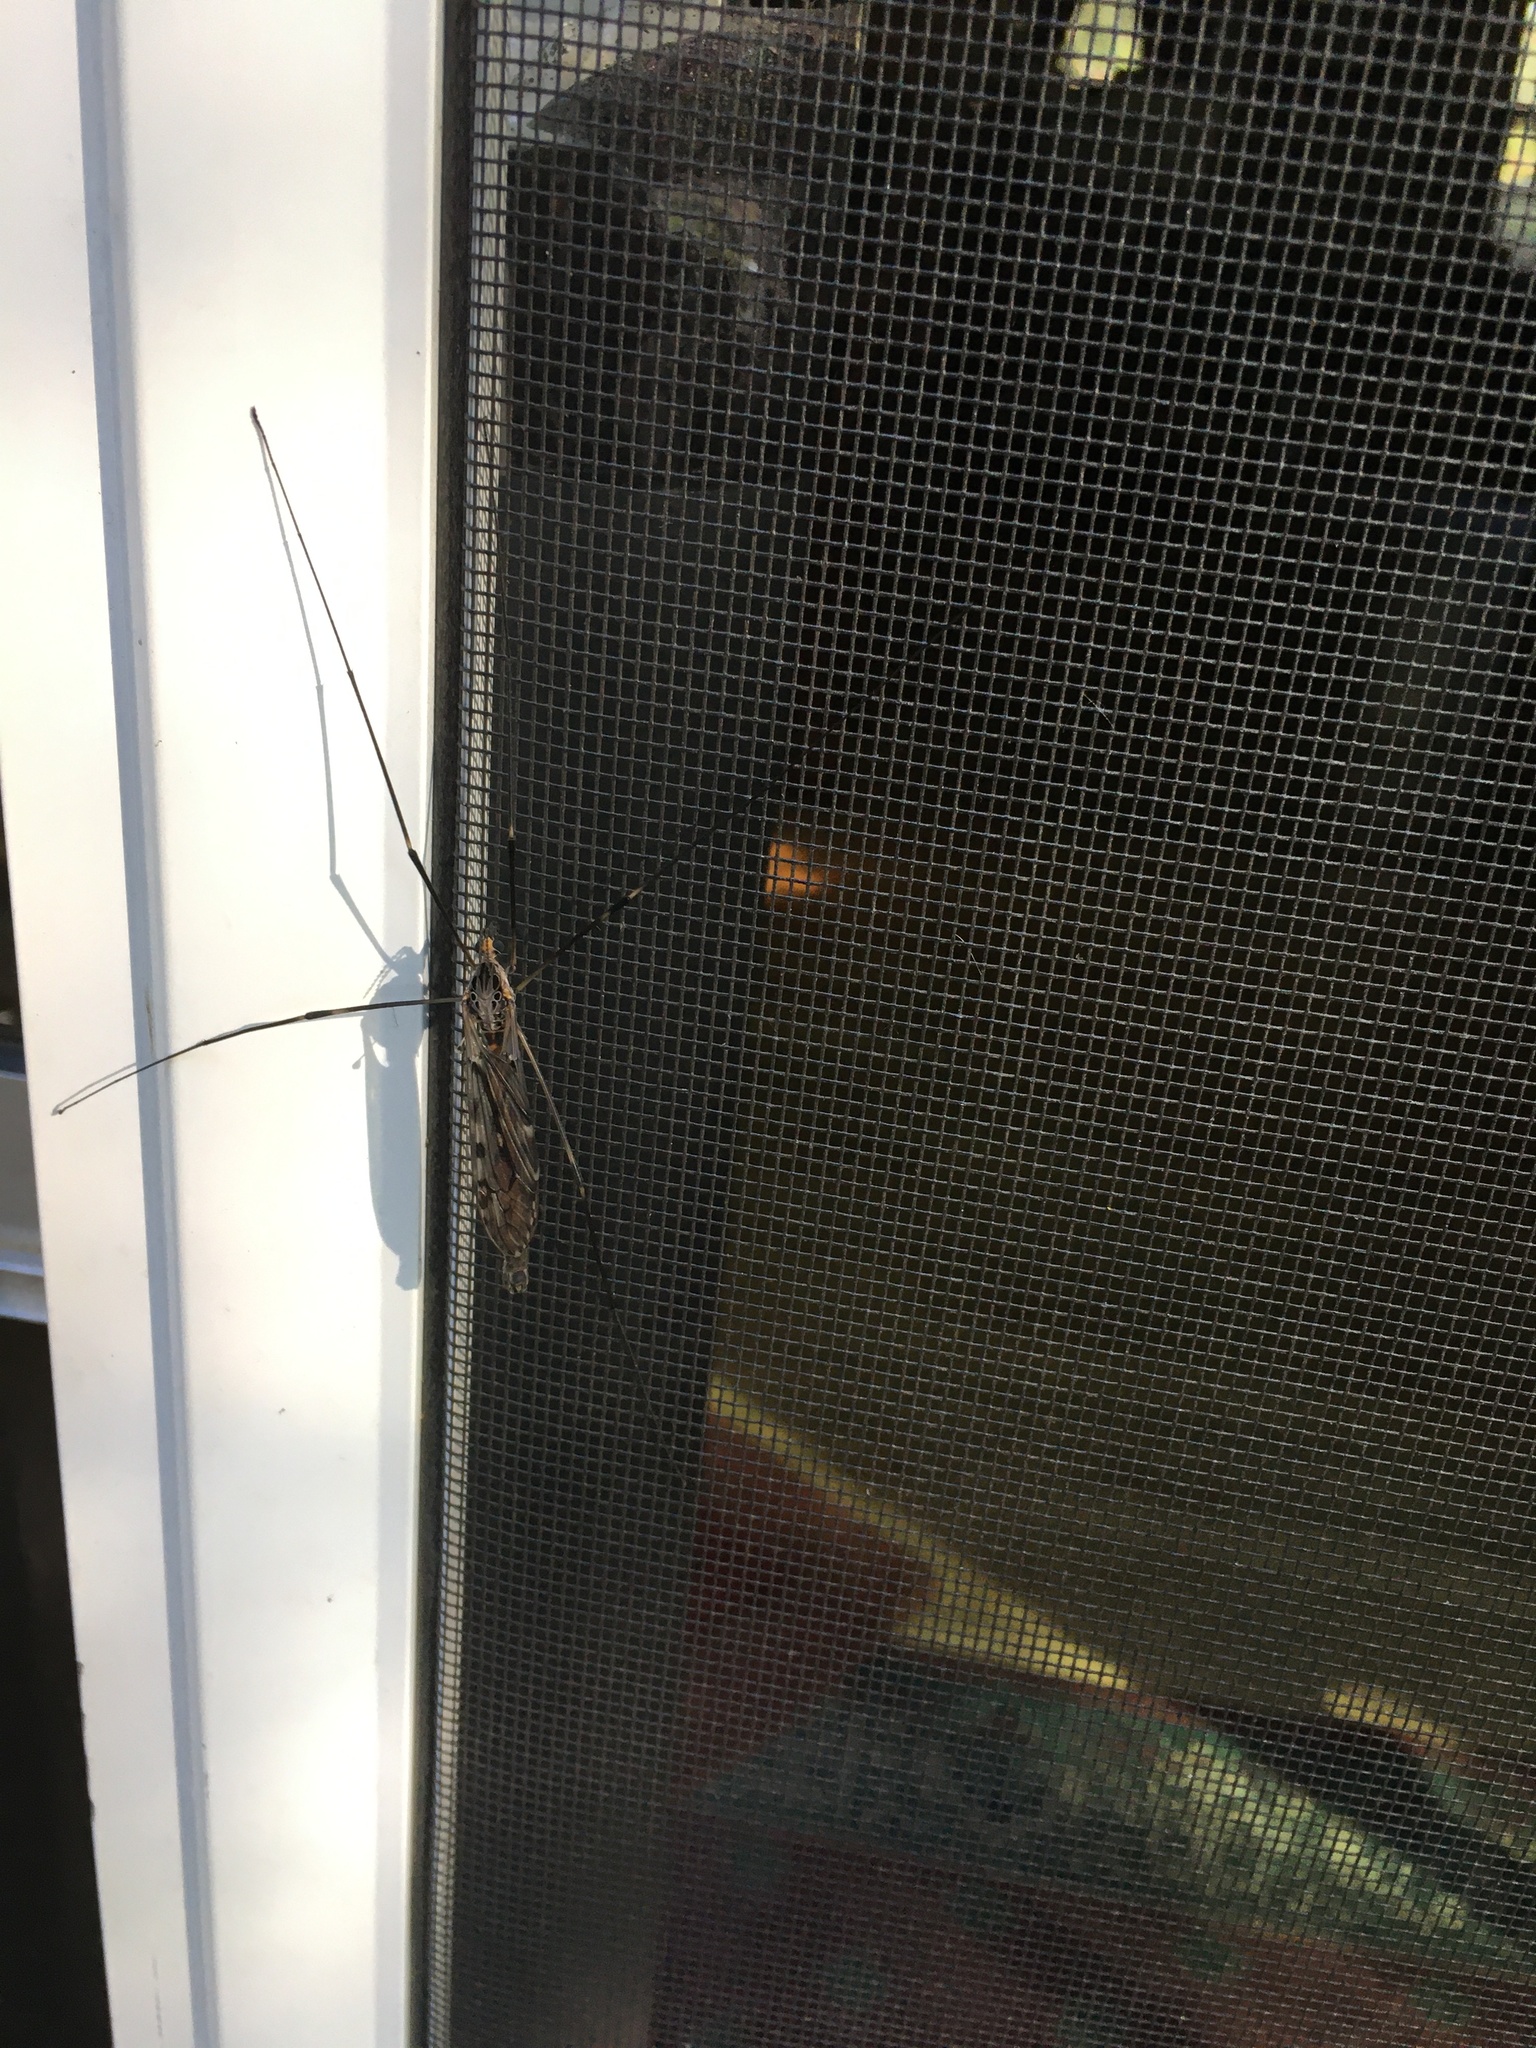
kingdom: Animalia
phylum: Arthropoda
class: Insecta
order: Diptera
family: Tipulidae
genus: Tipula
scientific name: Tipula abdominalis
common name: Giant crane fly
